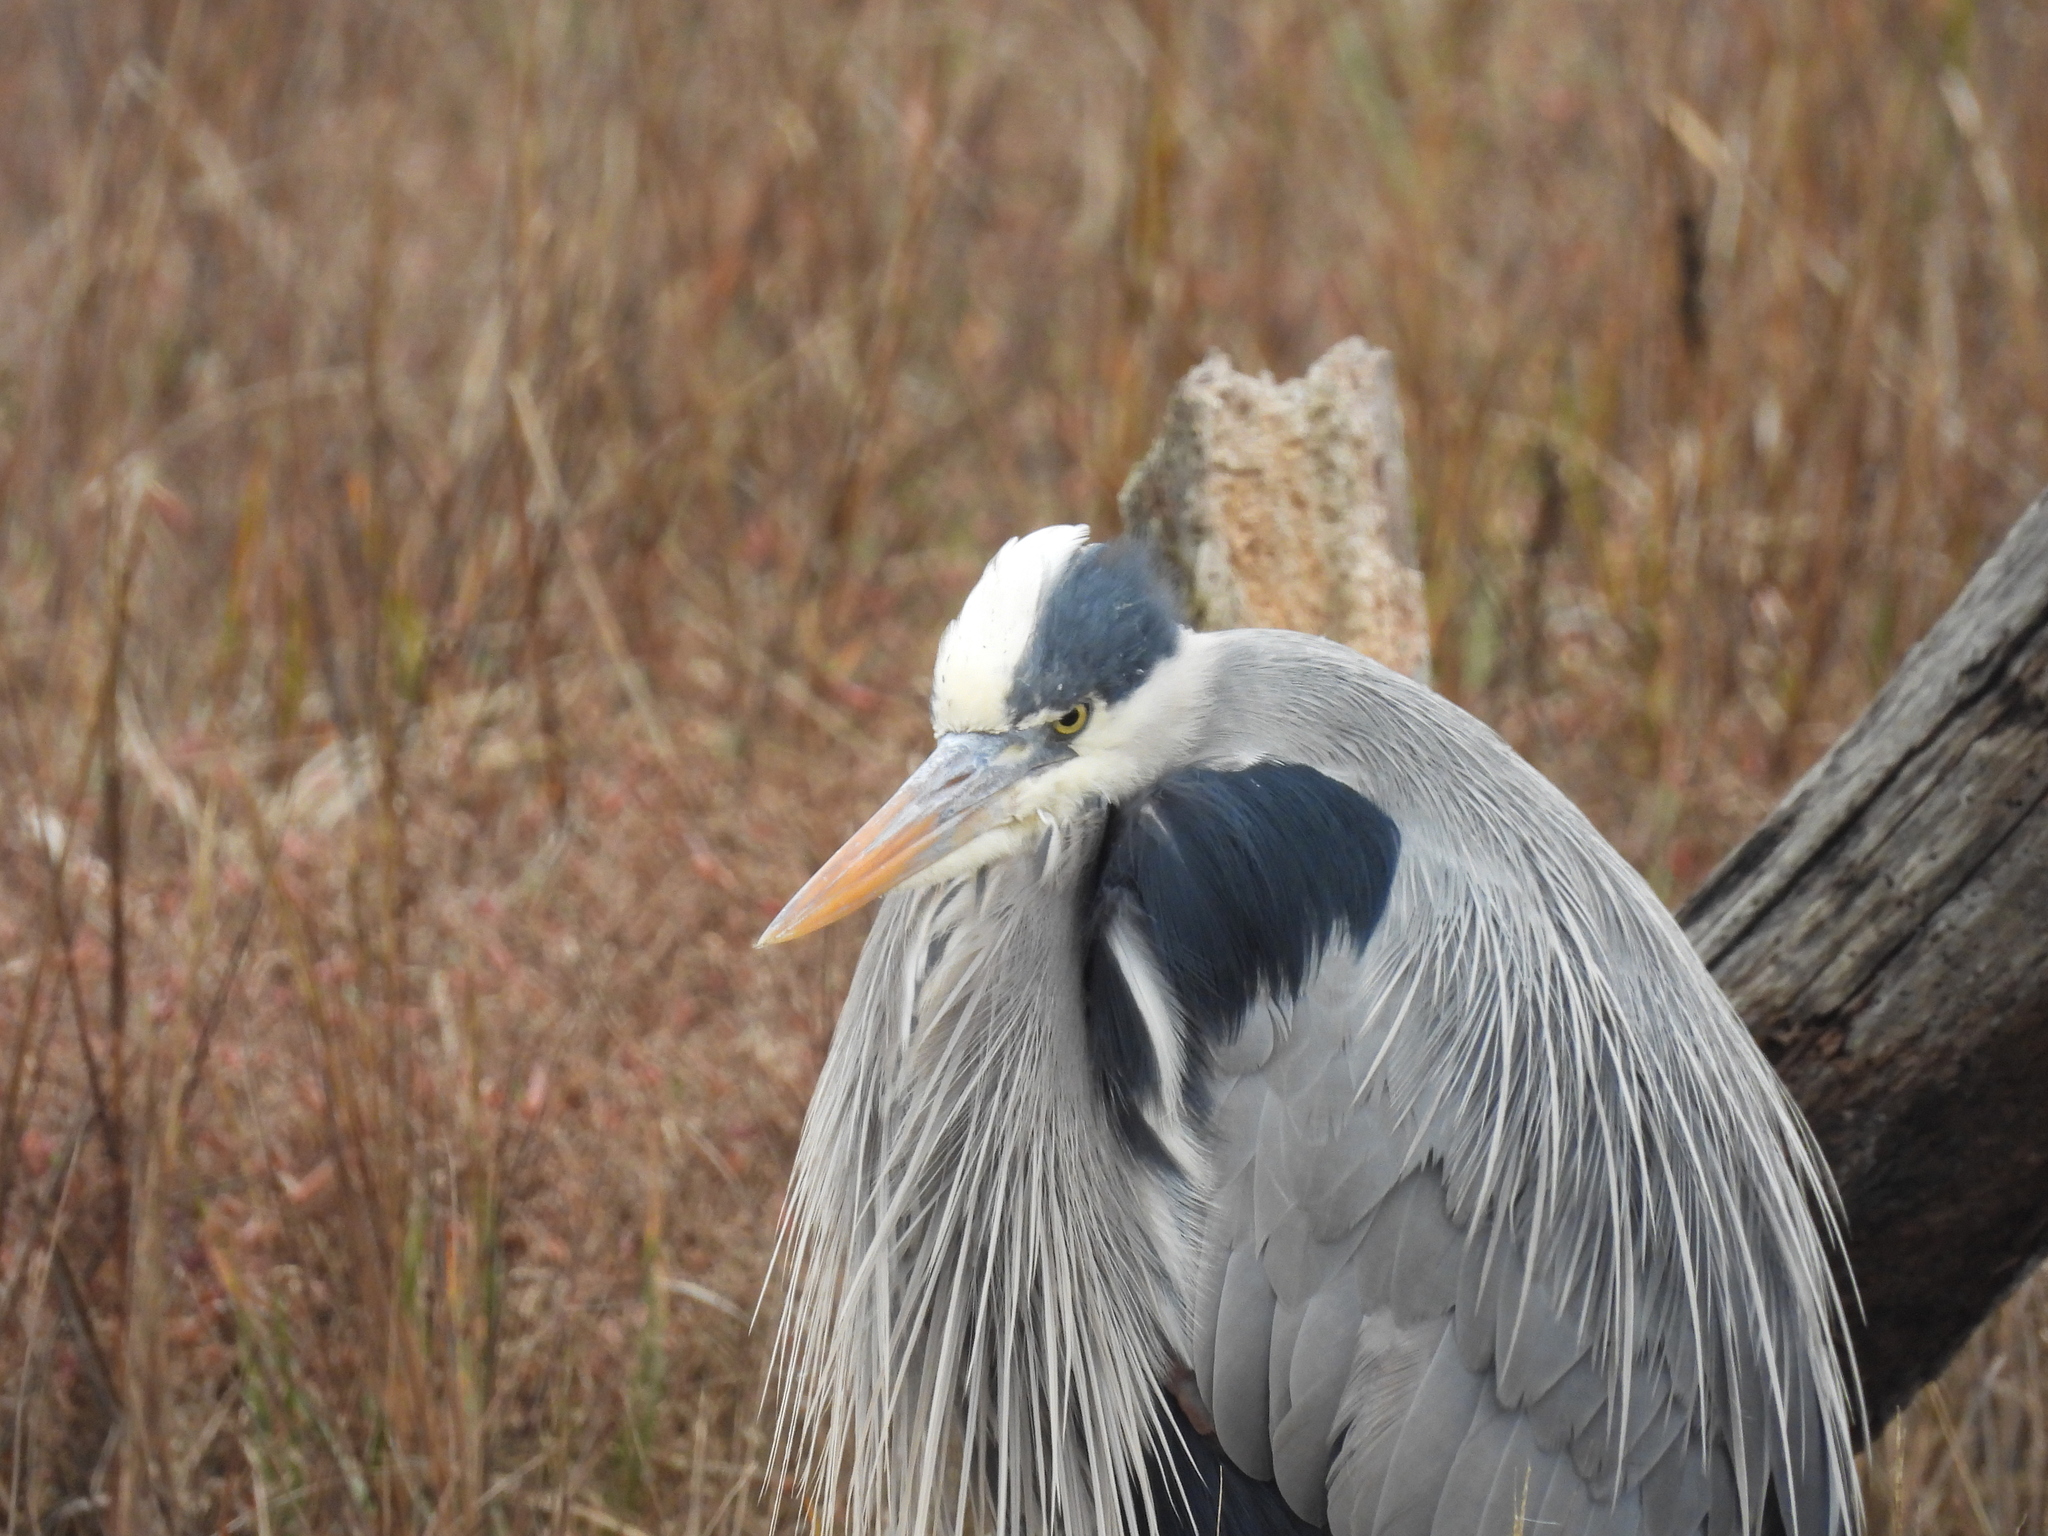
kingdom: Animalia
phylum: Chordata
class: Aves
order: Pelecaniformes
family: Ardeidae
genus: Ardea
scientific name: Ardea herodias
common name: Great blue heron
